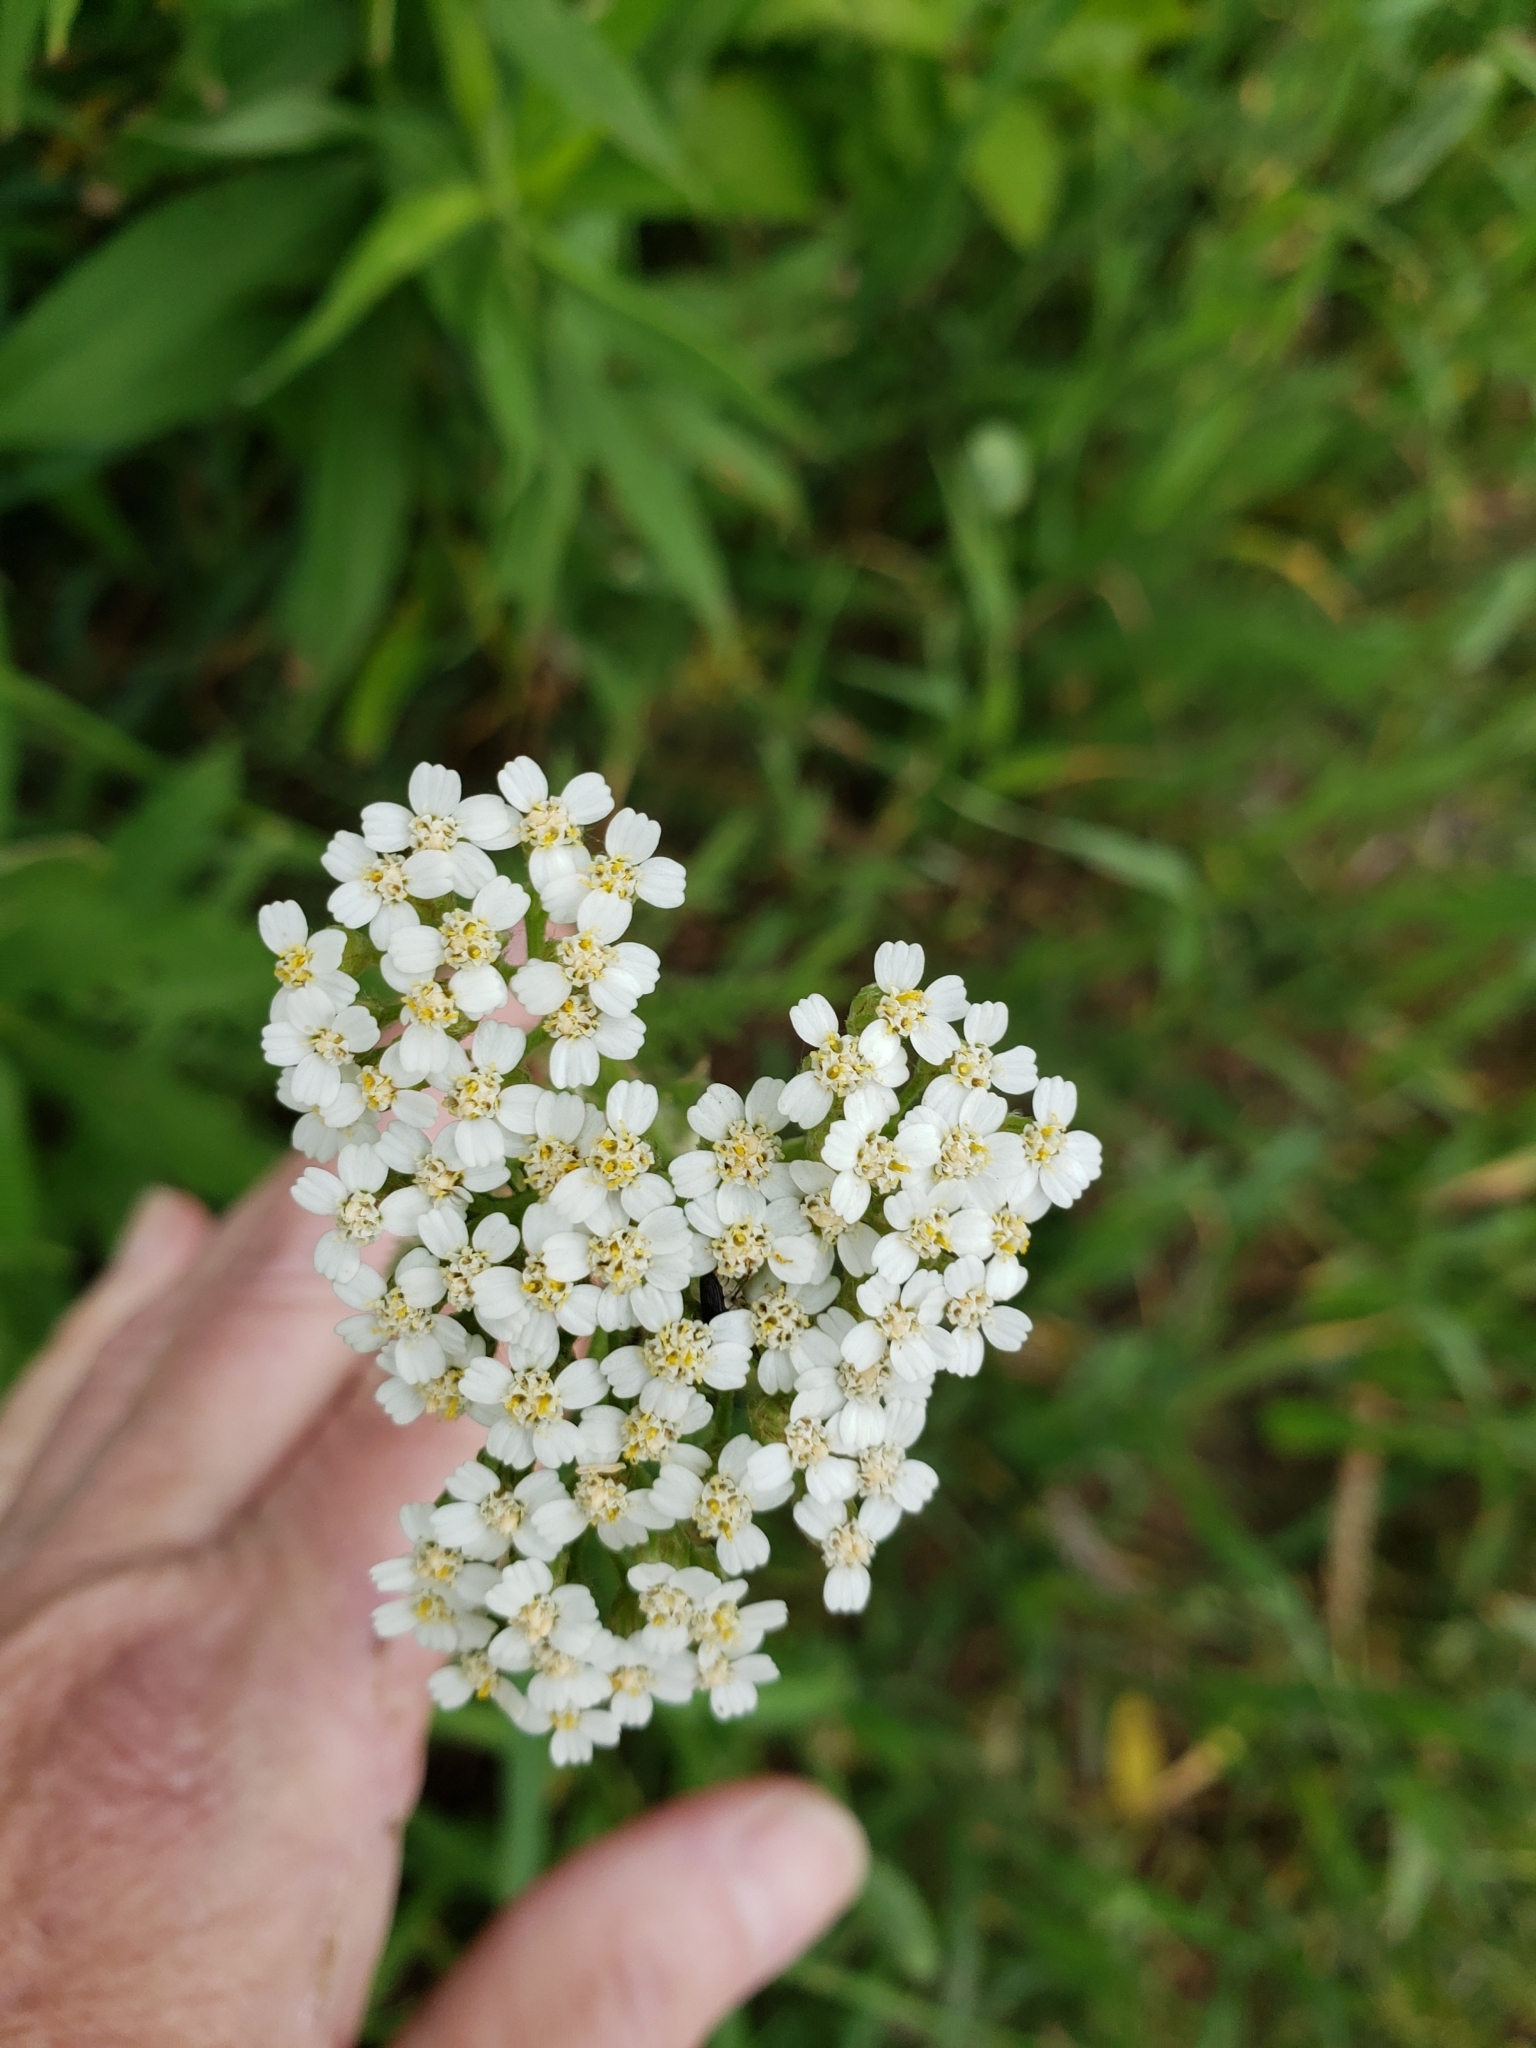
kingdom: Plantae
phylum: Tracheophyta
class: Magnoliopsida
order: Asterales
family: Asteraceae
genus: Achillea
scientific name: Achillea millefolium
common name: Yarrow
